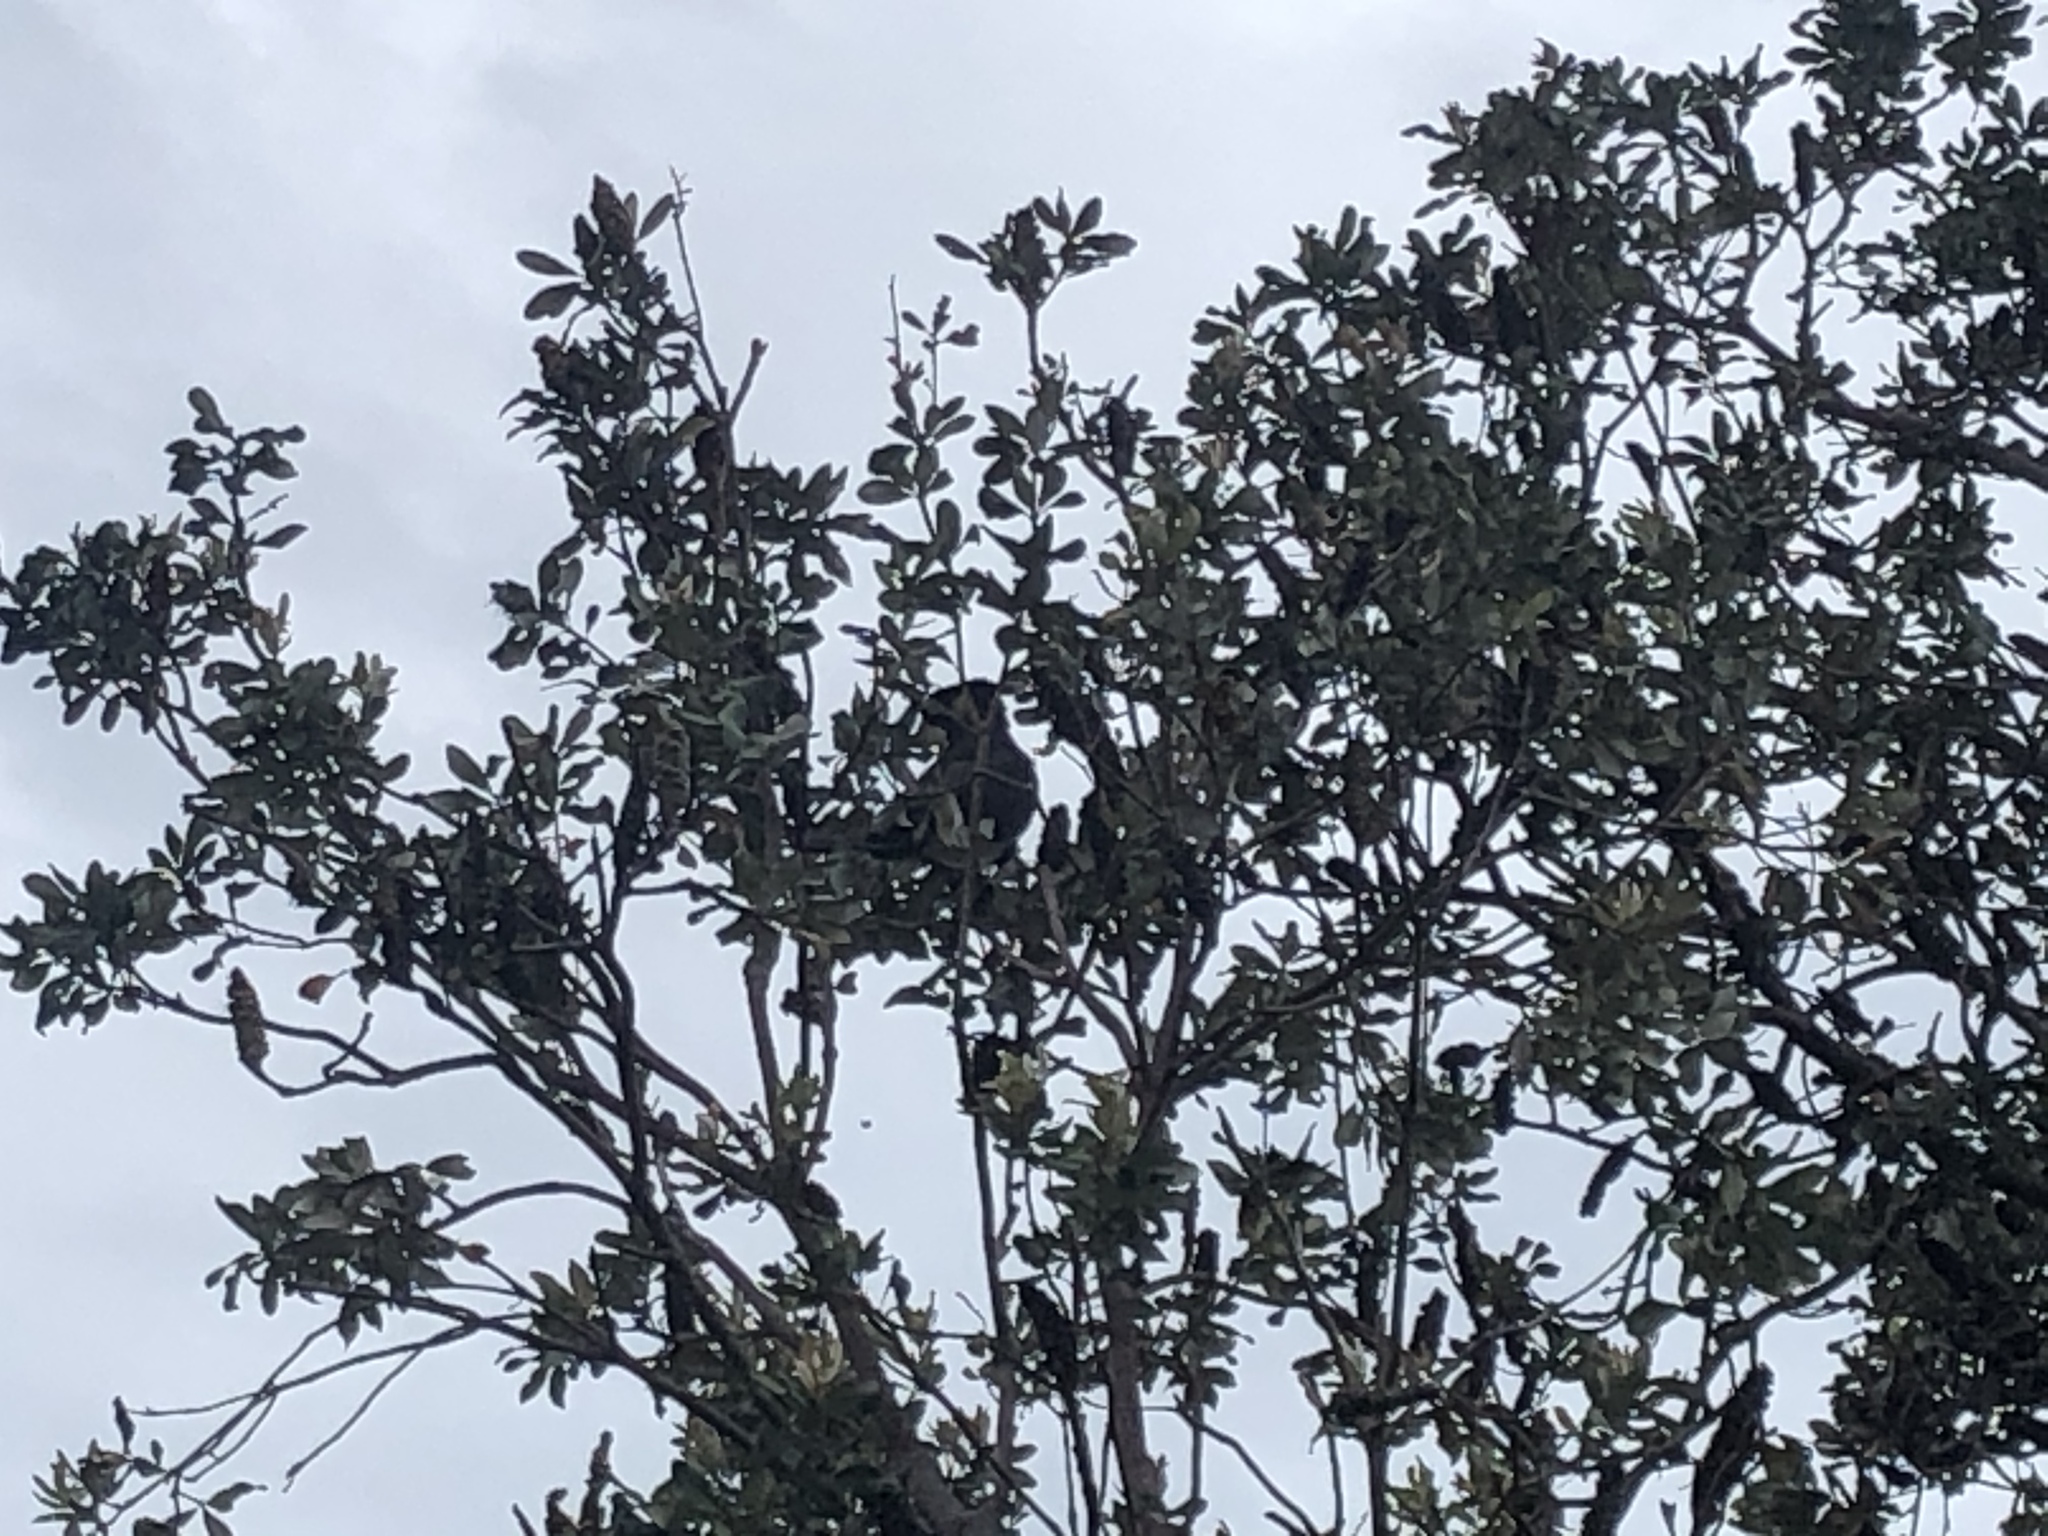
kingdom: Animalia
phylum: Chordata
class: Aves
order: Psittaciformes
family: Cacatuidae
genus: Zanda
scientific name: Zanda funerea
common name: Yellow-tailed black-cockatoo
